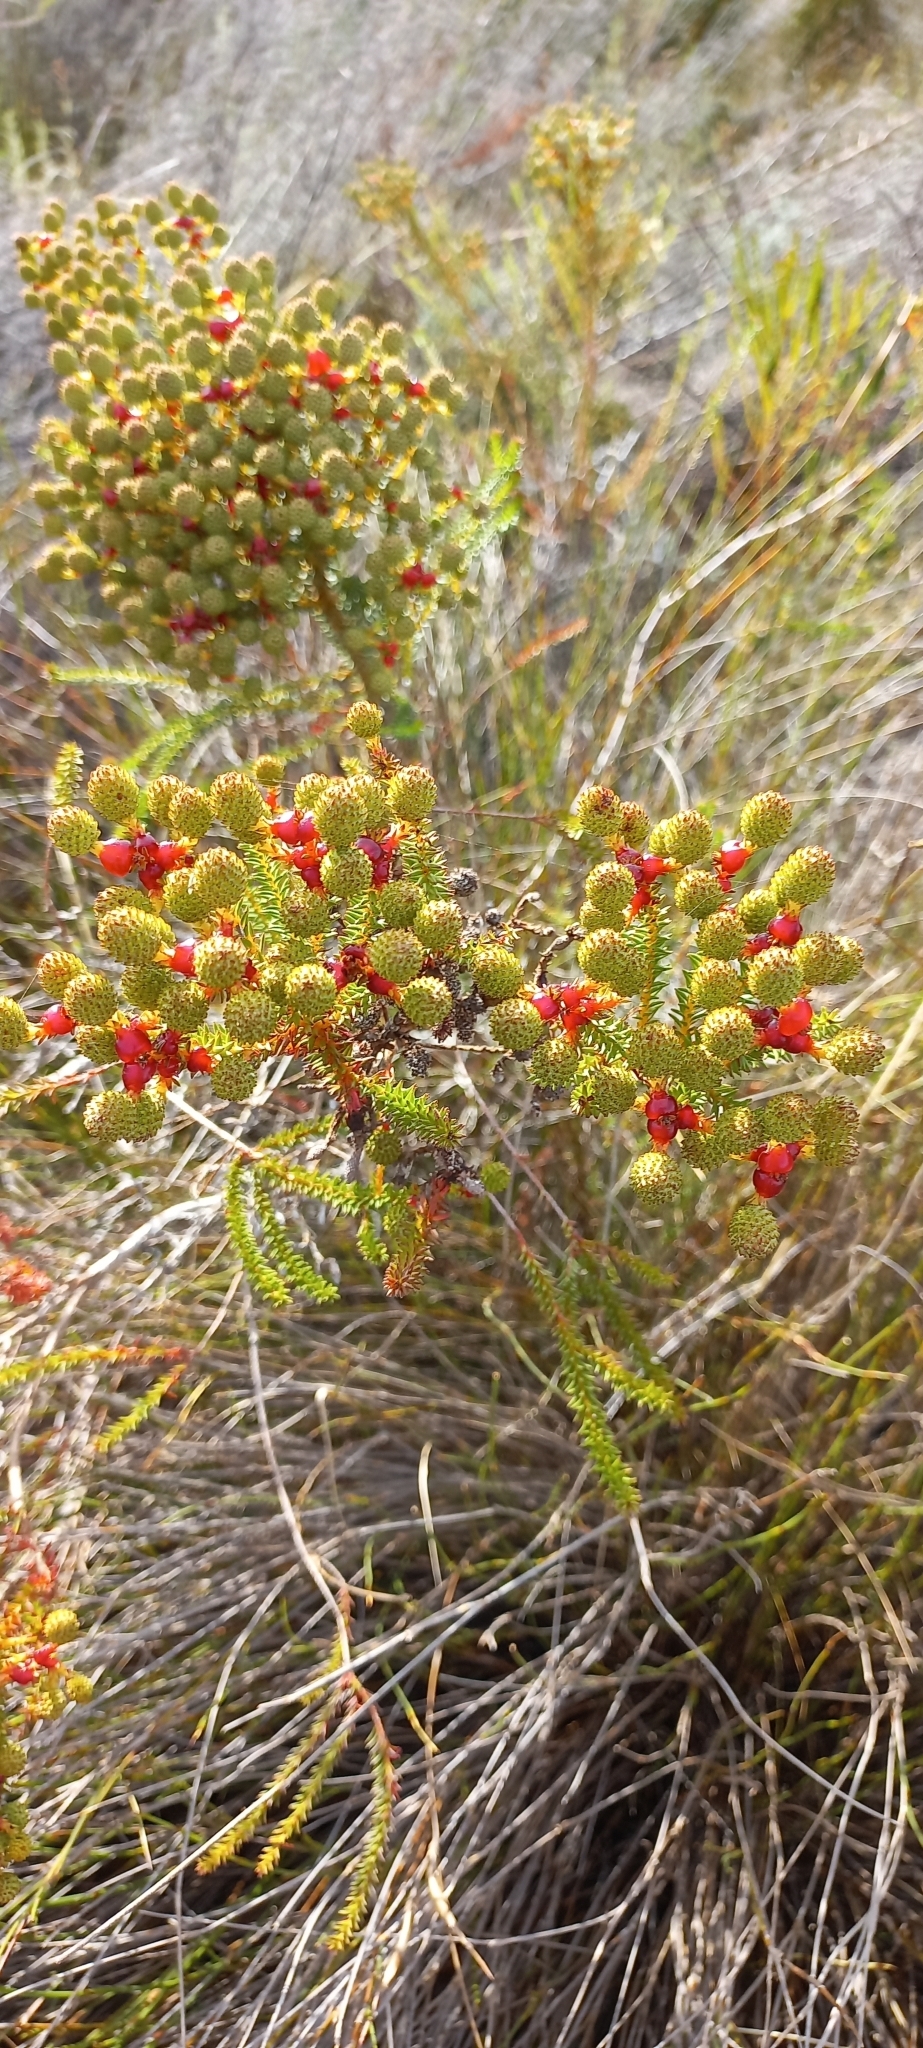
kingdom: Plantae
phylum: Tracheophyta
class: Magnoliopsida
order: Bruniales
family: Bruniaceae
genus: Berzelia
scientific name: Berzelia abrotanoides
